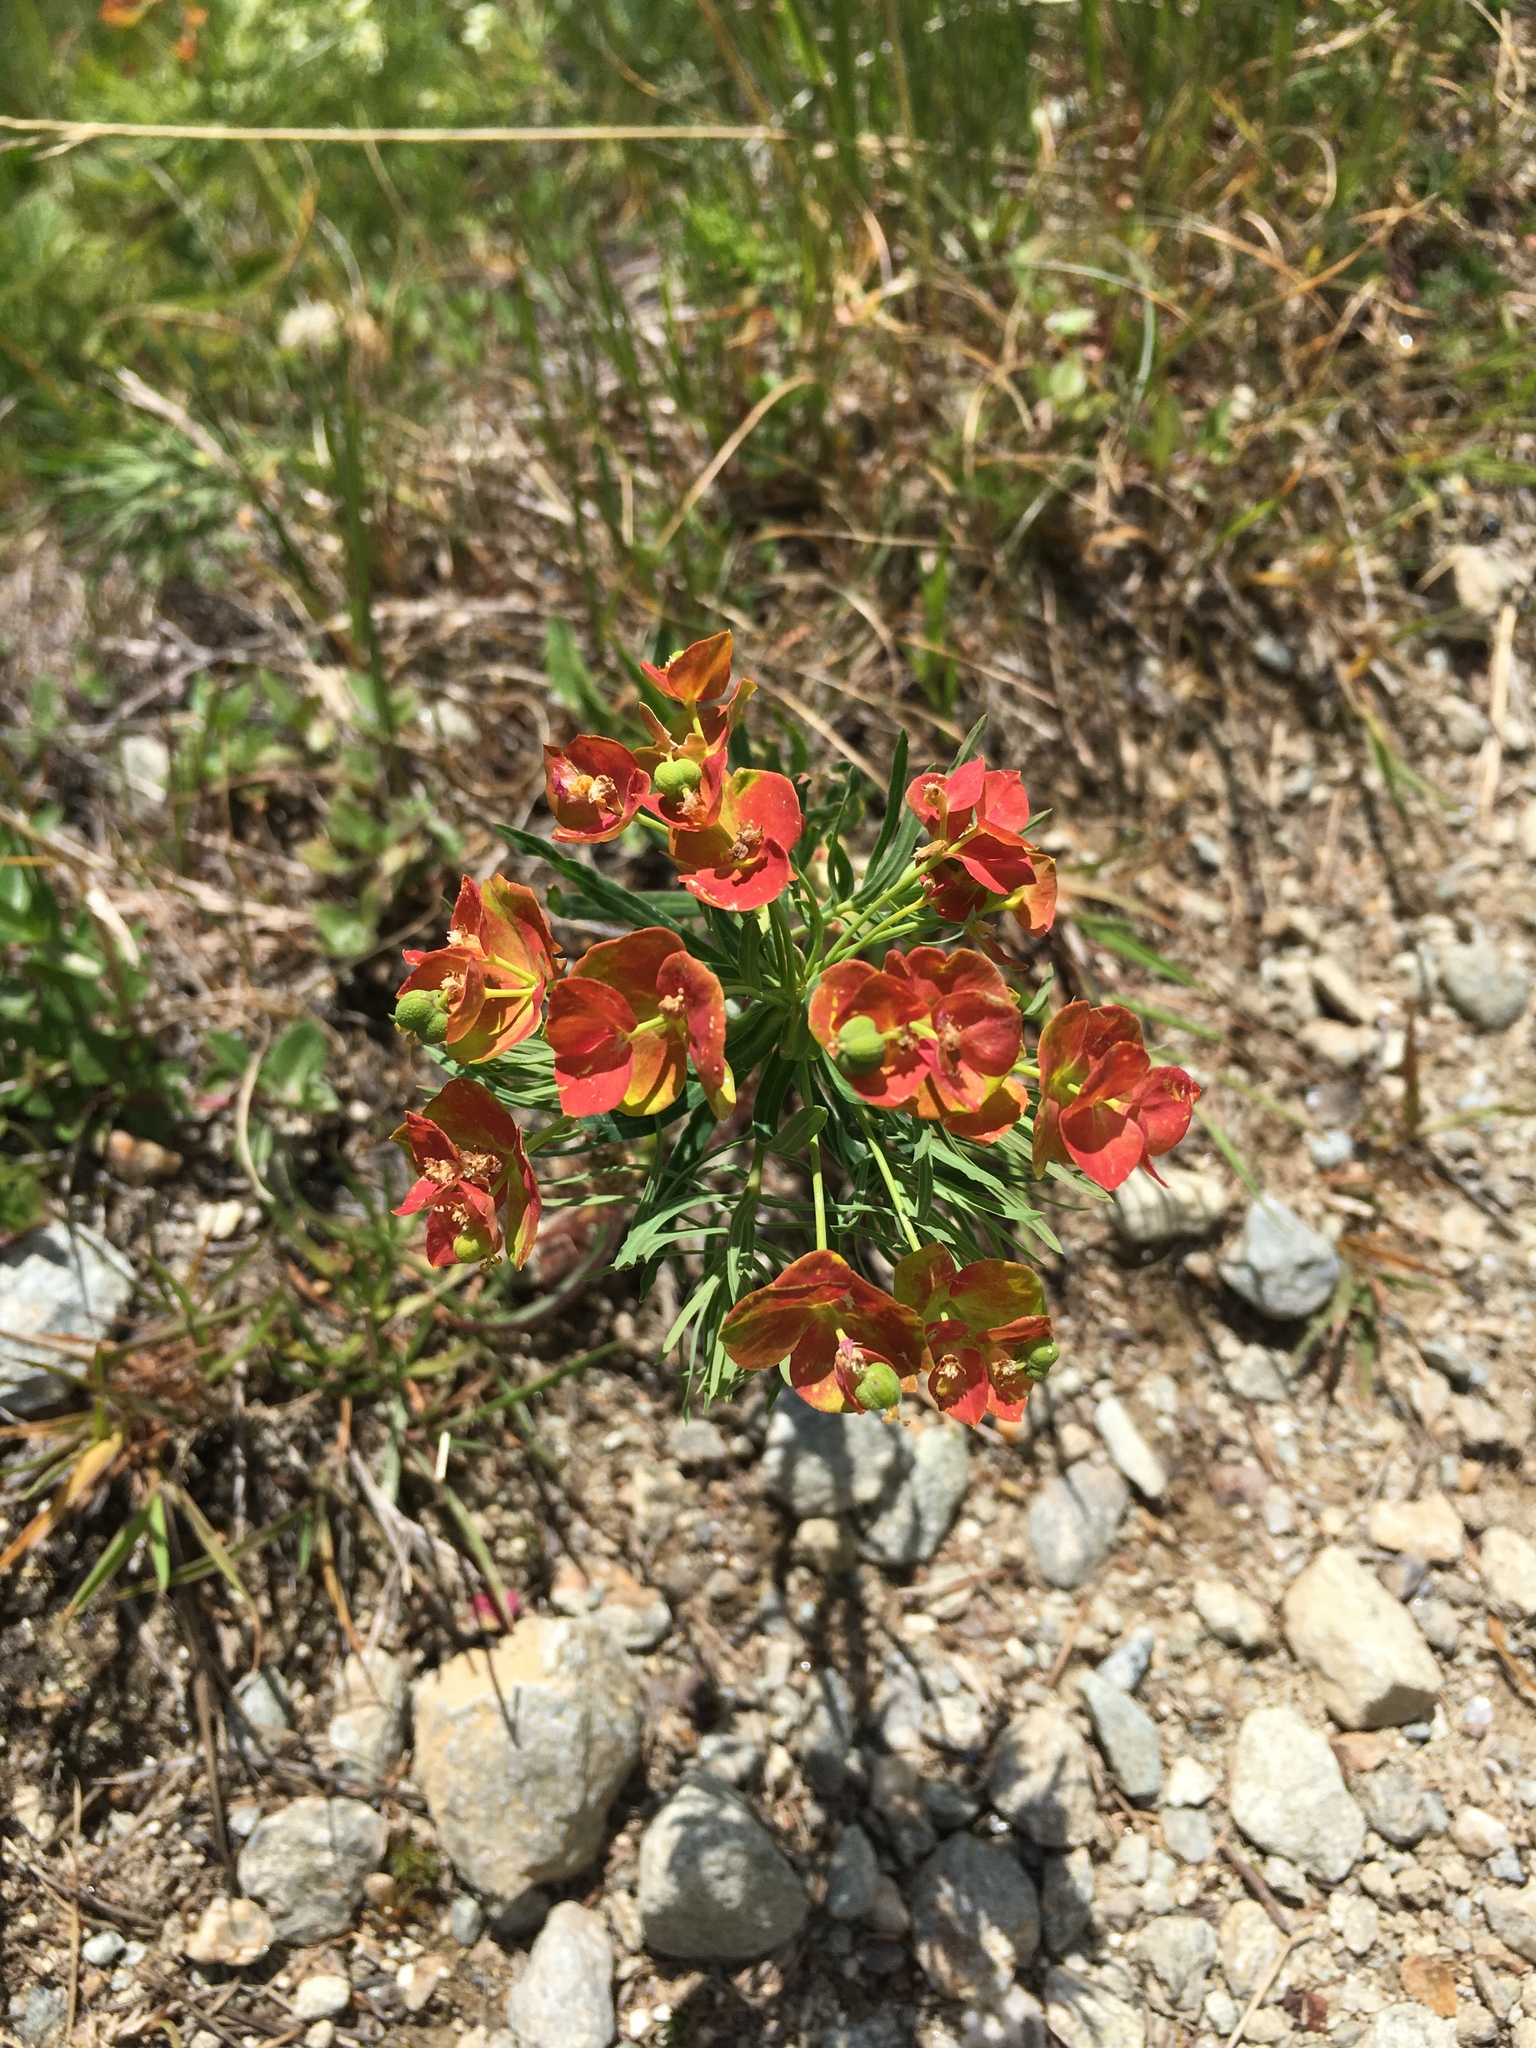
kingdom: Plantae
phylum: Tracheophyta
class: Magnoliopsida
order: Malpighiales
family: Euphorbiaceae
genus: Euphorbia
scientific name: Euphorbia cyparissias
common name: Cypress spurge
